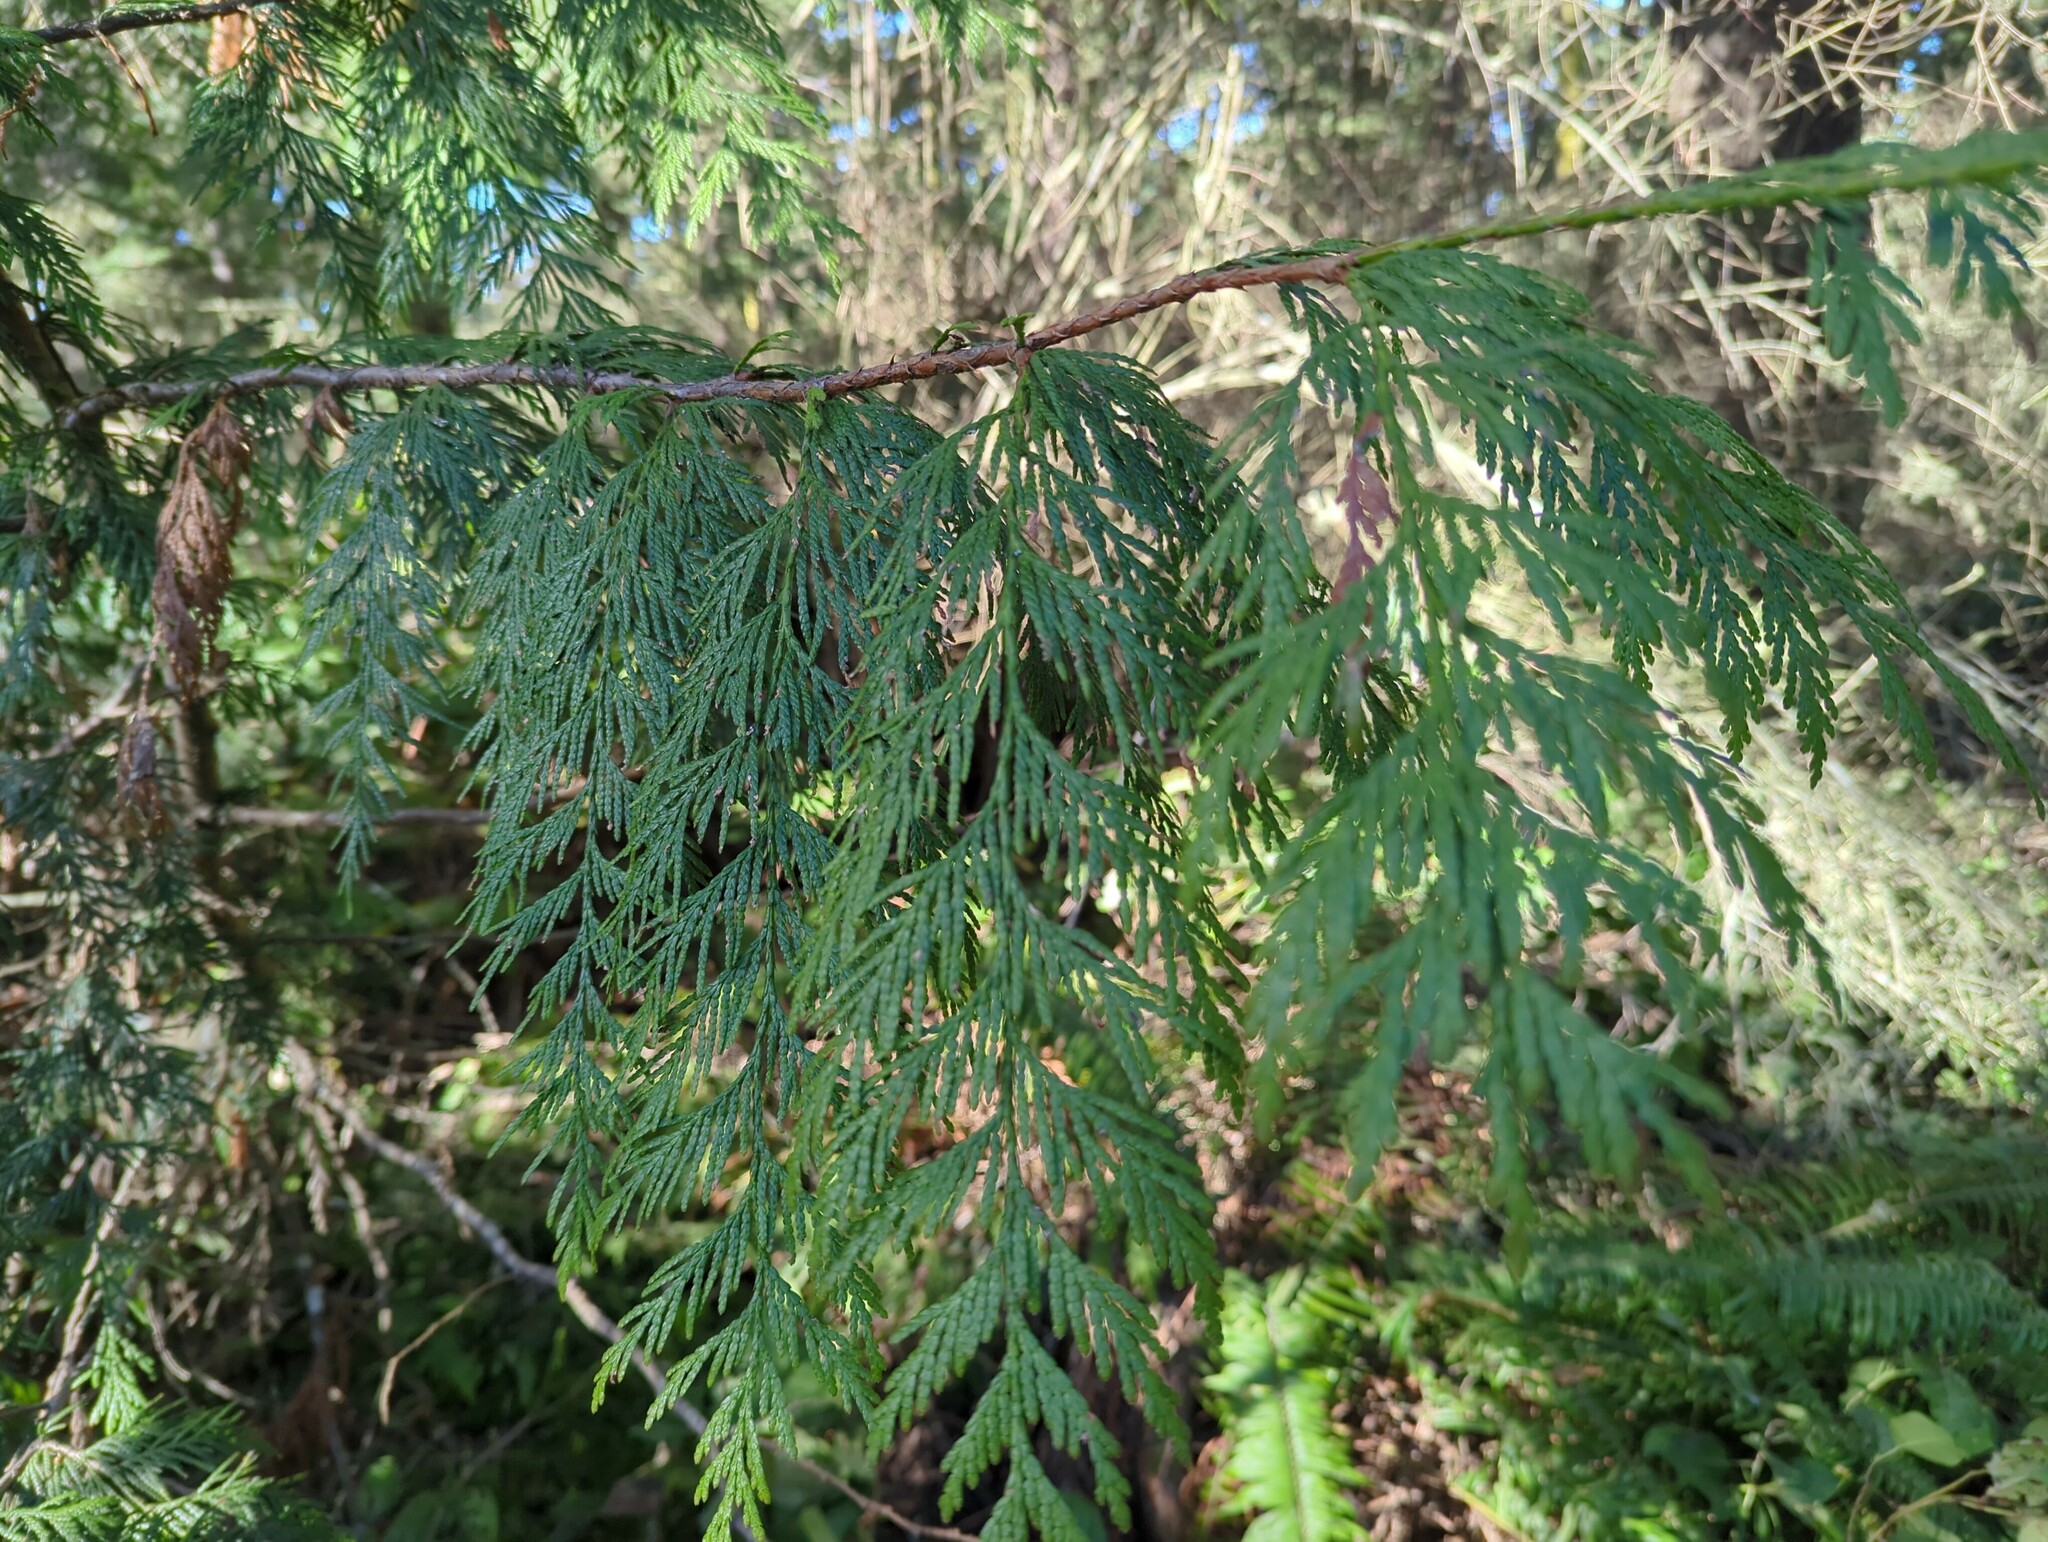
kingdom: Plantae
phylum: Tracheophyta
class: Pinopsida
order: Pinales
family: Cupressaceae
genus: Thuja
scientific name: Thuja plicata
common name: Western red-cedar
